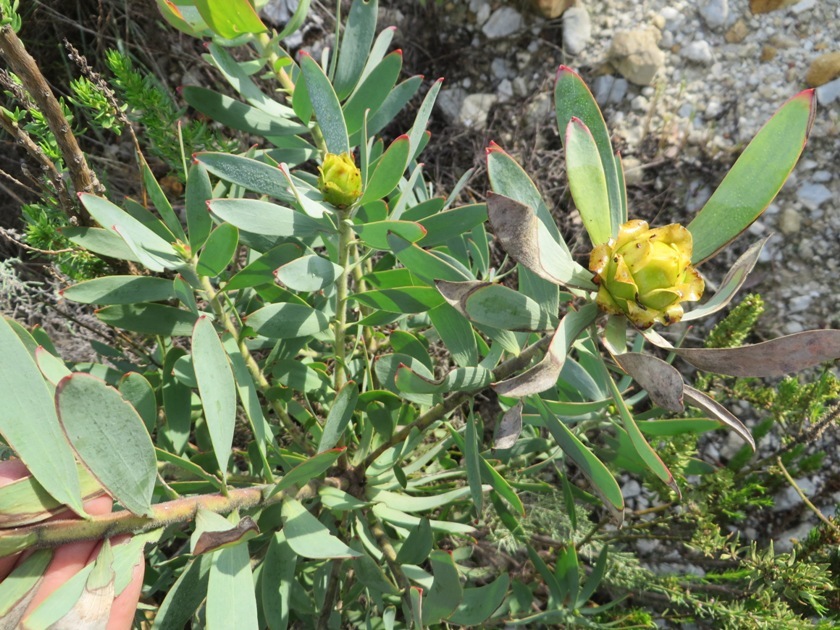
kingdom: Plantae
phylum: Tracheophyta
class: Magnoliopsida
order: Proteales
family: Proteaceae
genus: Leucadendron
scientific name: Leucadendron tinctum
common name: Spicy conebush
